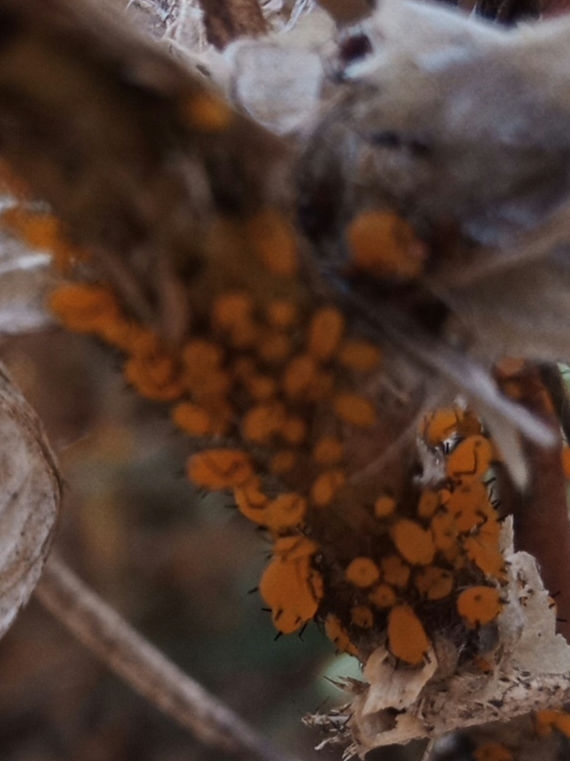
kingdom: Animalia
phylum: Arthropoda
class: Insecta
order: Hemiptera
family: Aphididae
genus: Aphis
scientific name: Aphis nerii
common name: Oleander aphid
